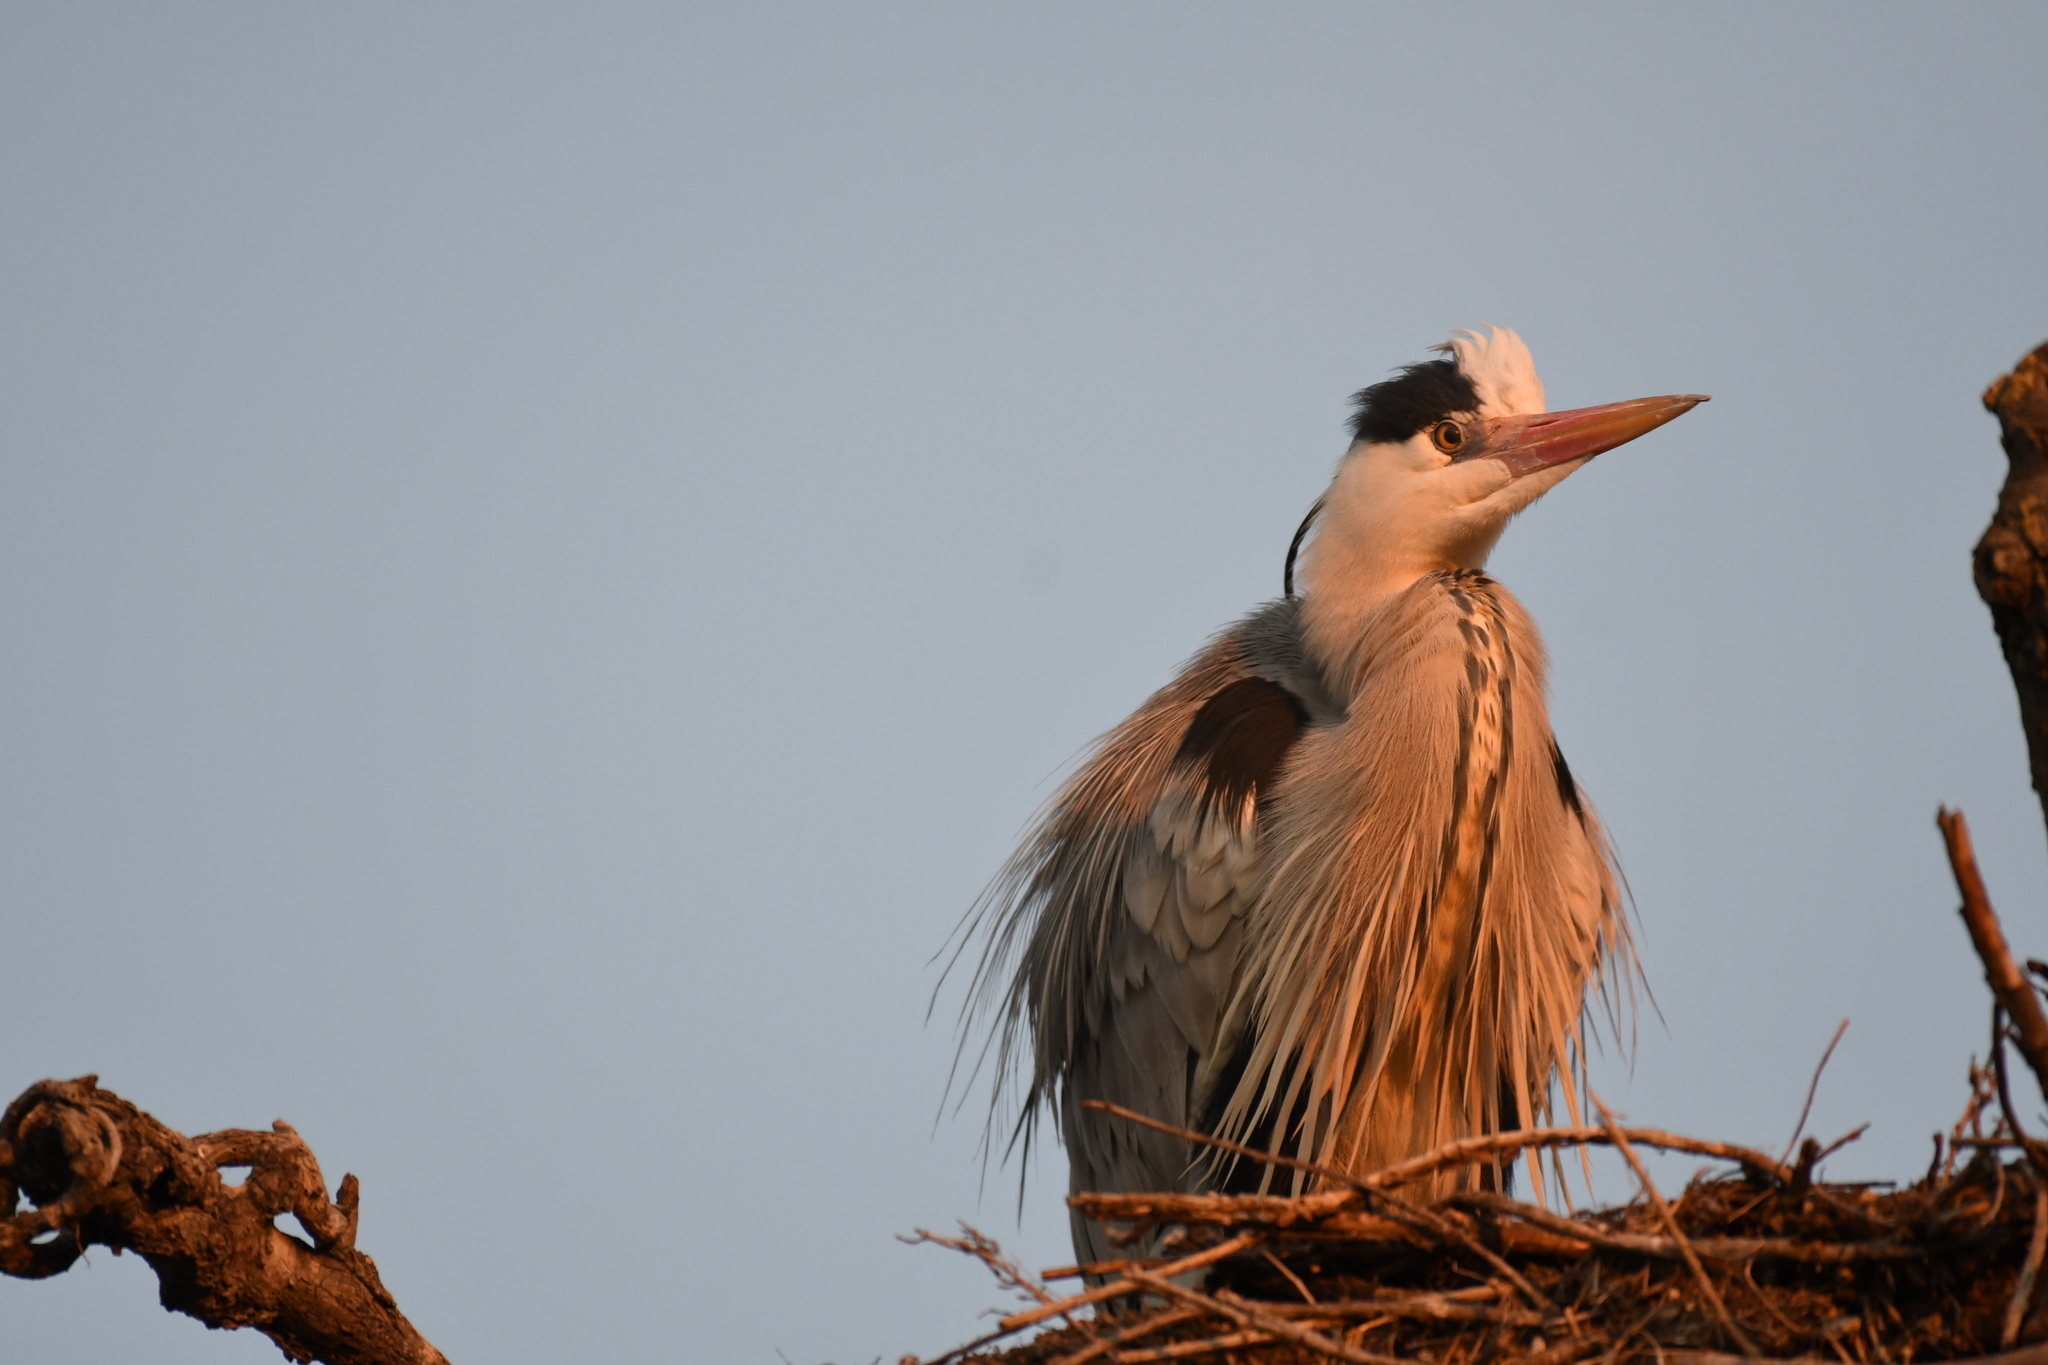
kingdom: Animalia
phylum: Chordata
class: Aves
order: Pelecaniformes
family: Ardeidae
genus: Ardea
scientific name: Ardea cinerea
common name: Grey heron
